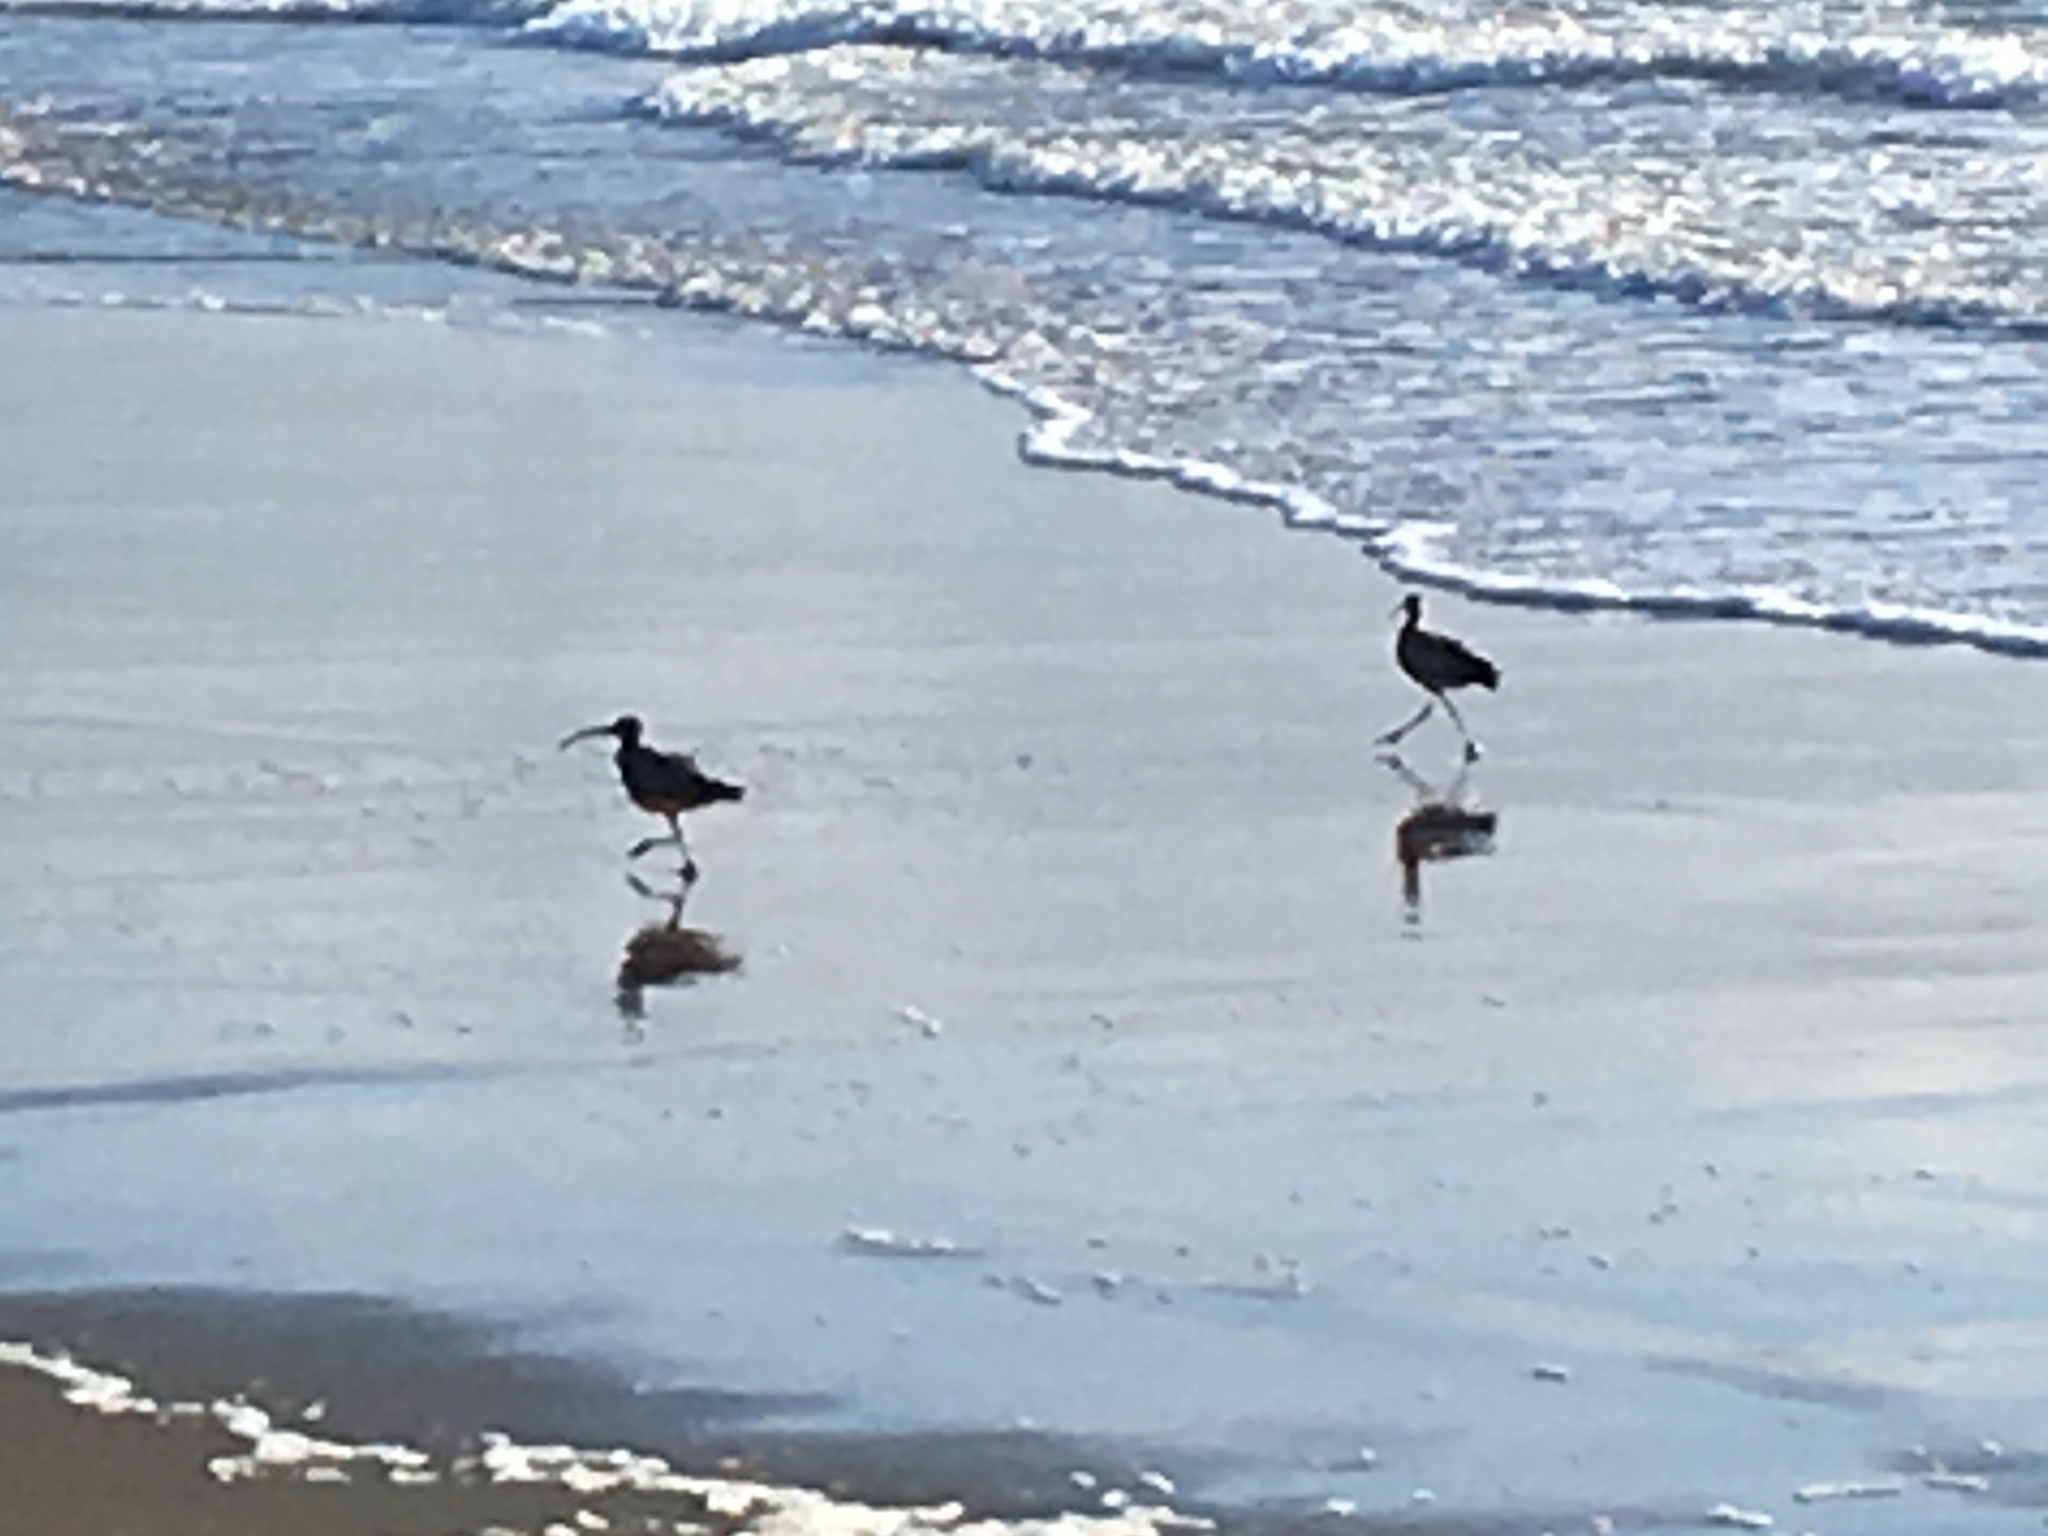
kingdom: Animalia
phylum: Chordata
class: Aves
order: Charadriiformes
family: Scolopacidae
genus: Numenius
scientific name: Numenius americanus
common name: Long-billed curlew
